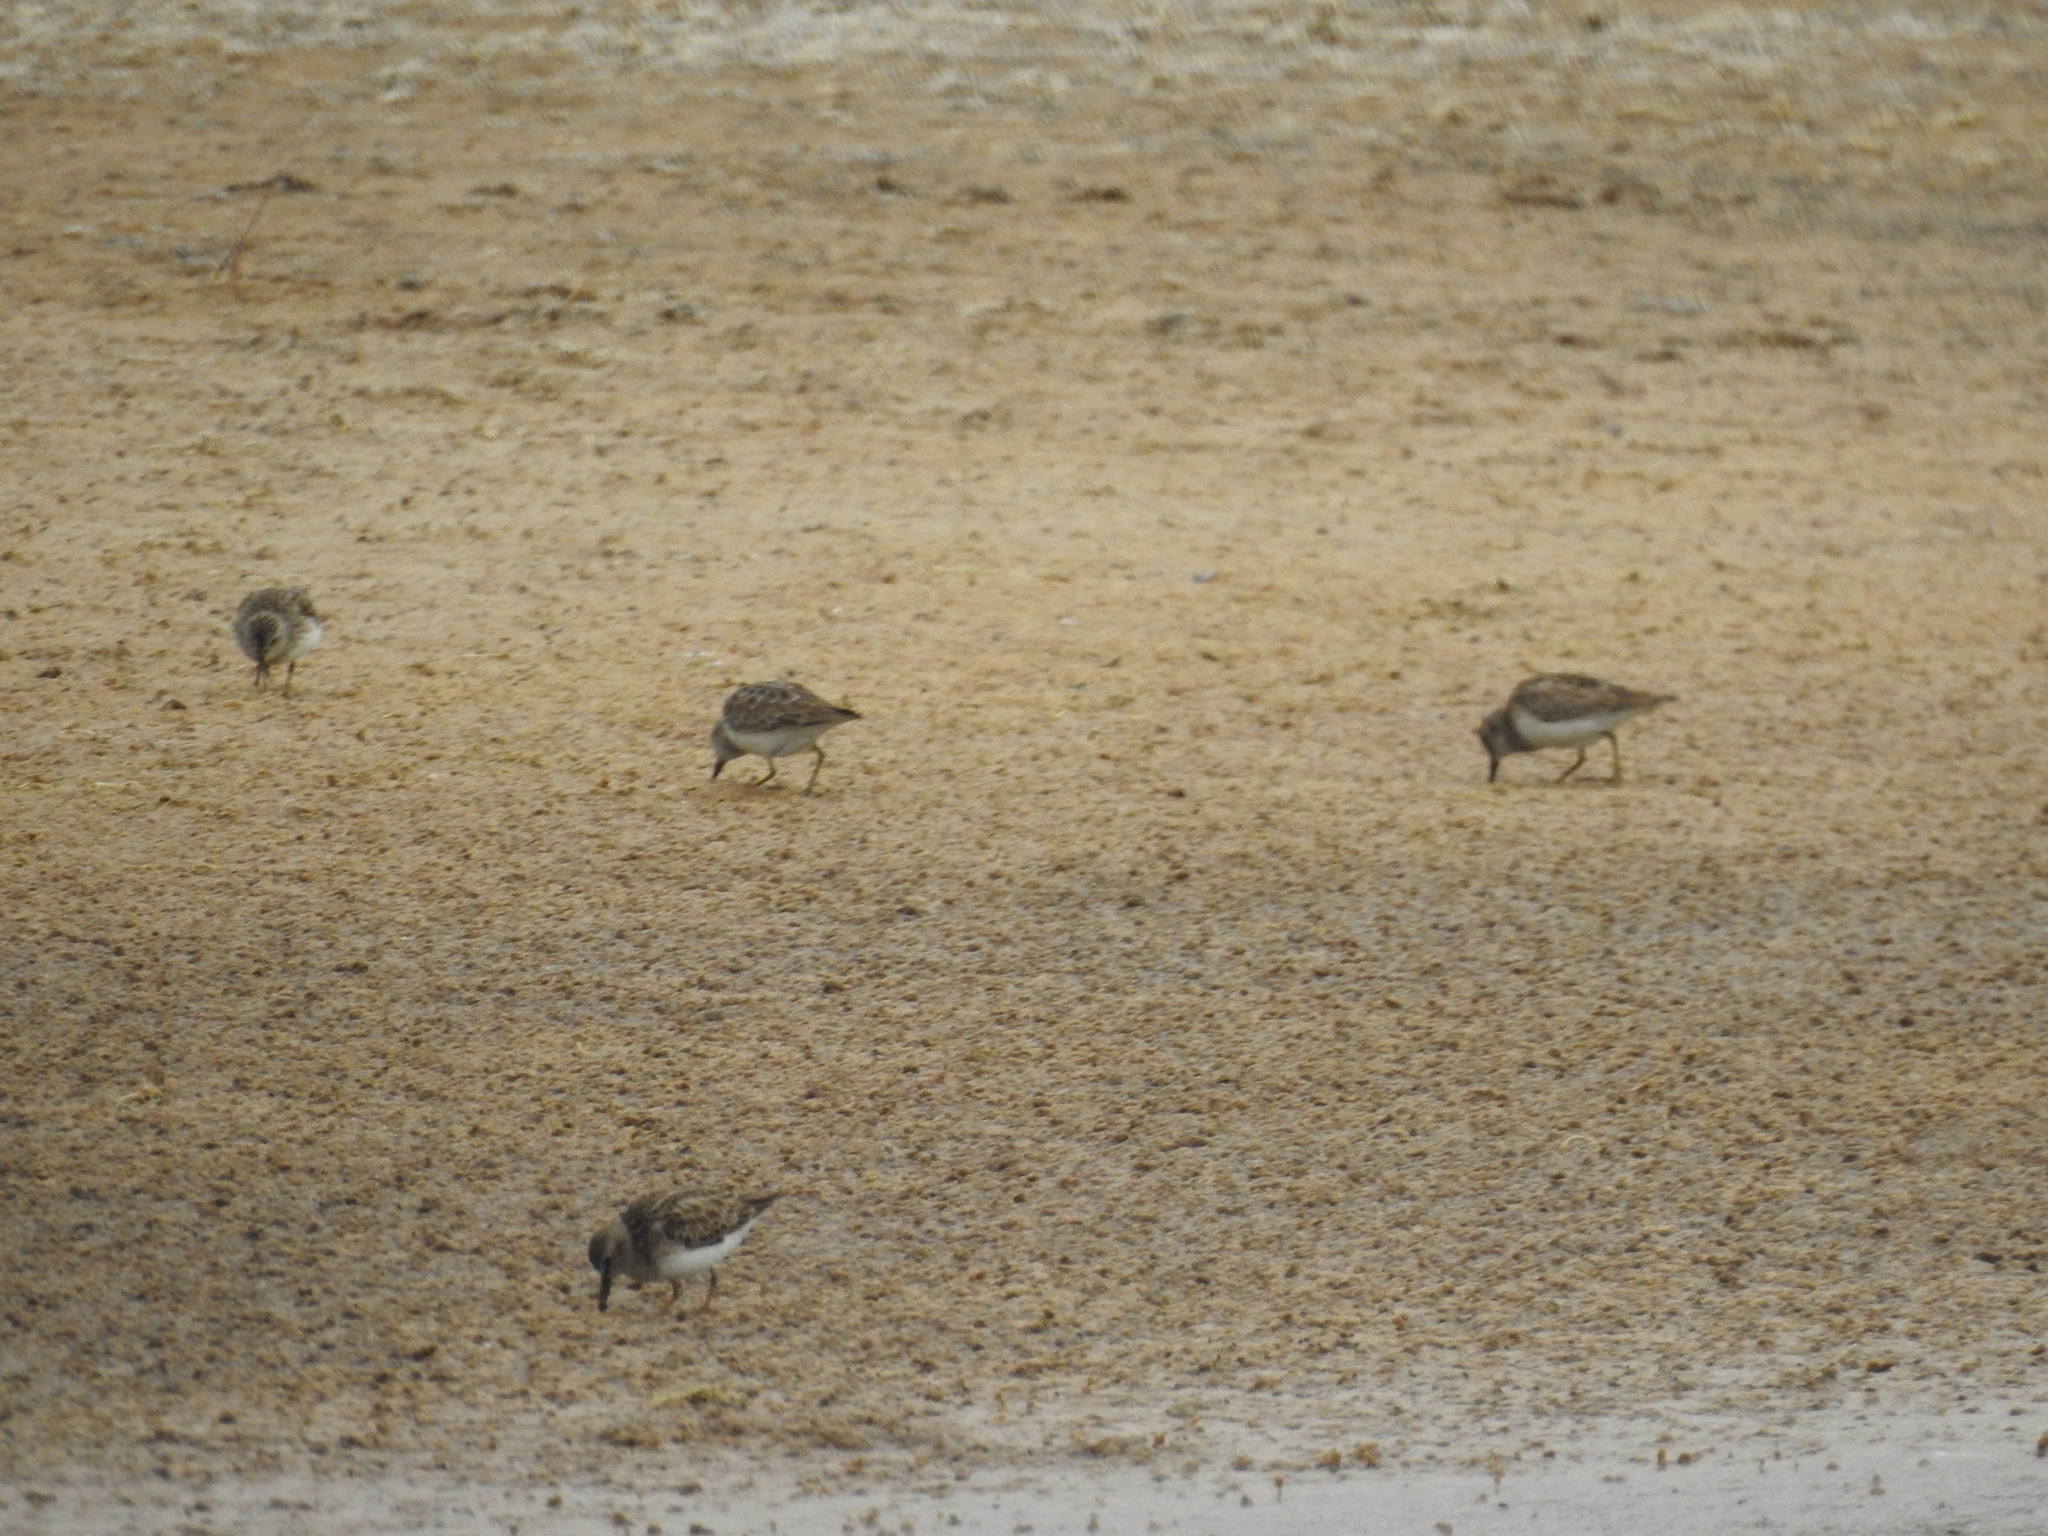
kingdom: Animalia
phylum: Chordata
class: Aves
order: Charadriiformes
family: Scolopacidae
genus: Calidris
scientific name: Calidris minutilla
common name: Least sandpiper
